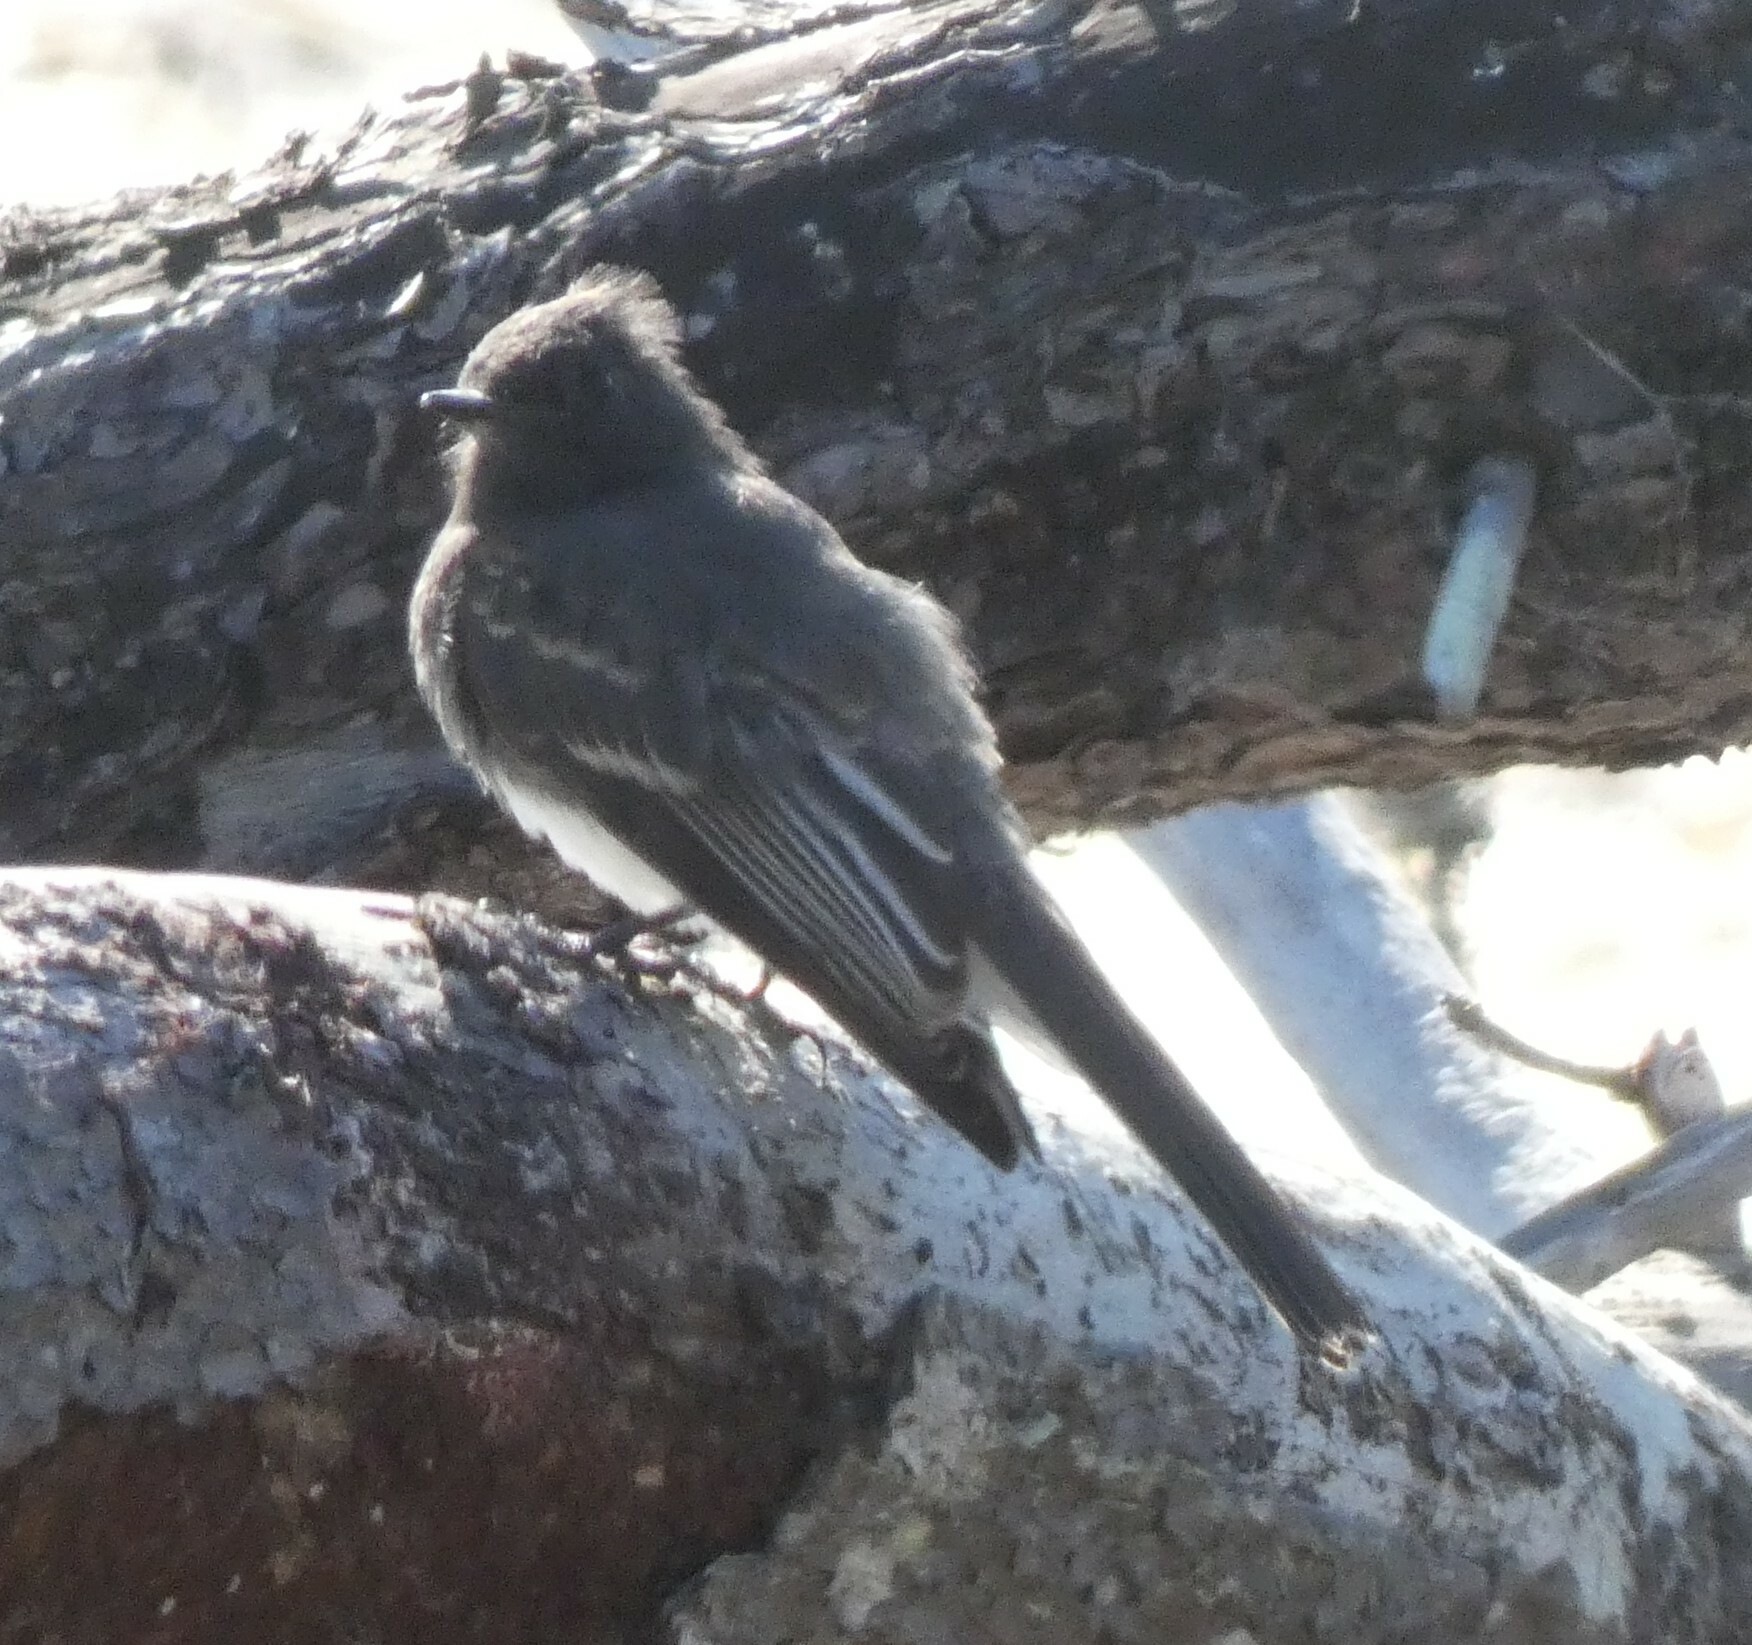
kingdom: Animalia
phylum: Chordata
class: Aves
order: Passeriformes
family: Tyrannidae
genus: Sayornis
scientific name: Sayornis nigricans
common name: Black phoebe
